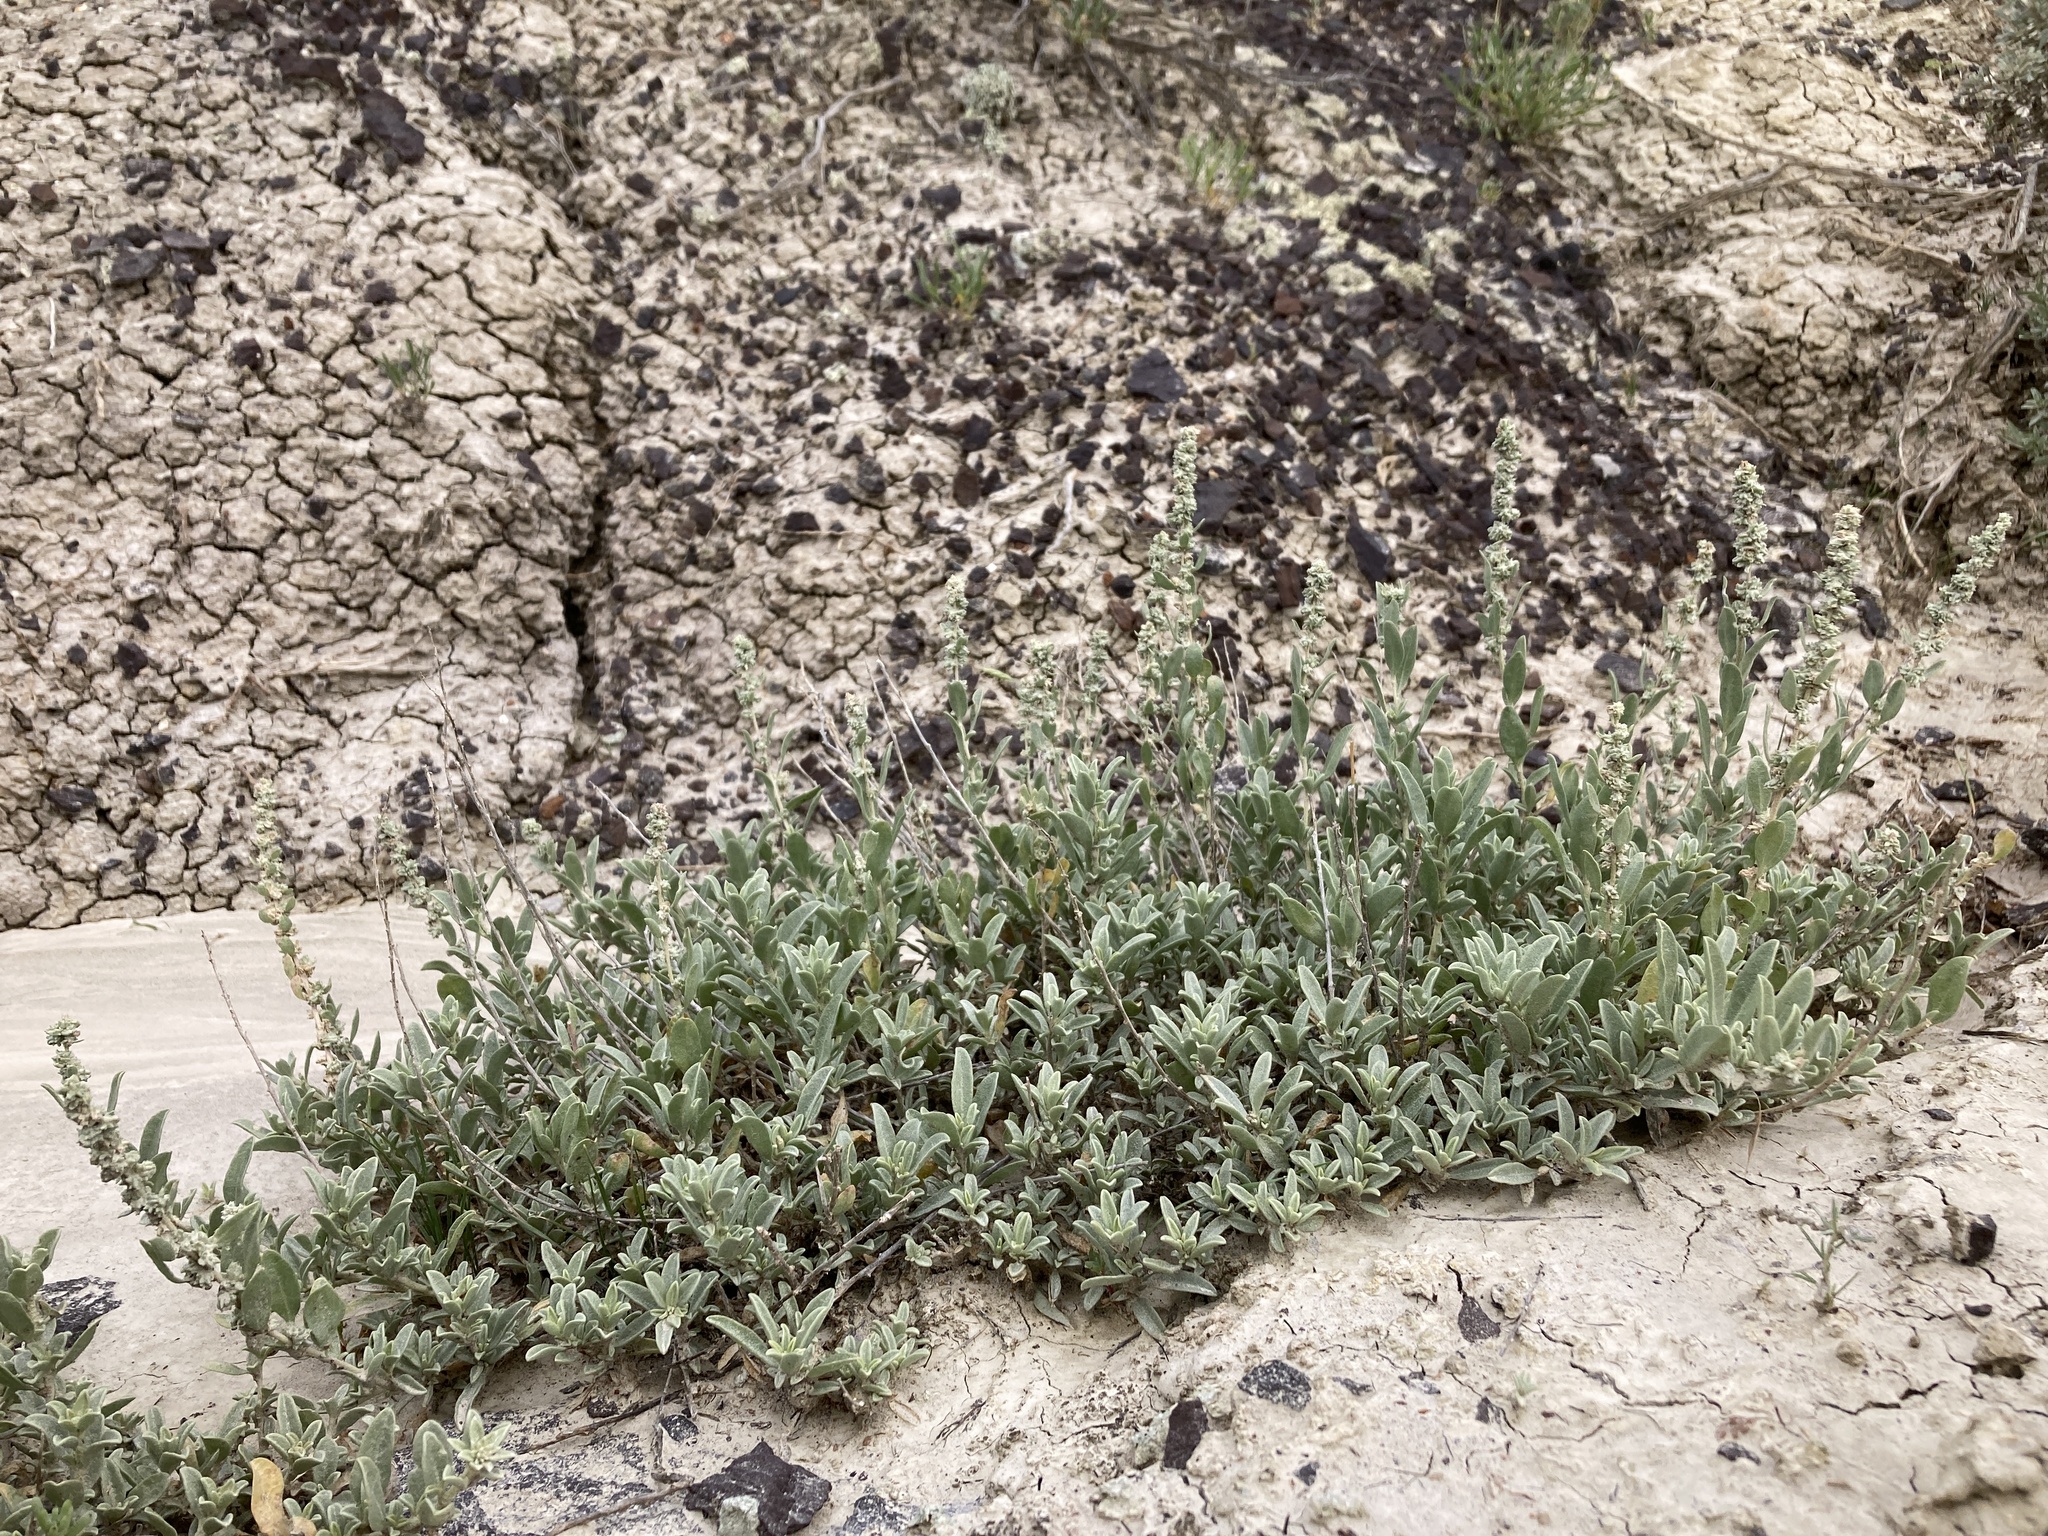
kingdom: Plantae
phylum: Tracheophyta
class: Magnoliopsida
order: Caryophyllales
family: Amaranthaceae
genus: Atriplex
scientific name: Atriplex gardneri
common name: Gardner's orache
